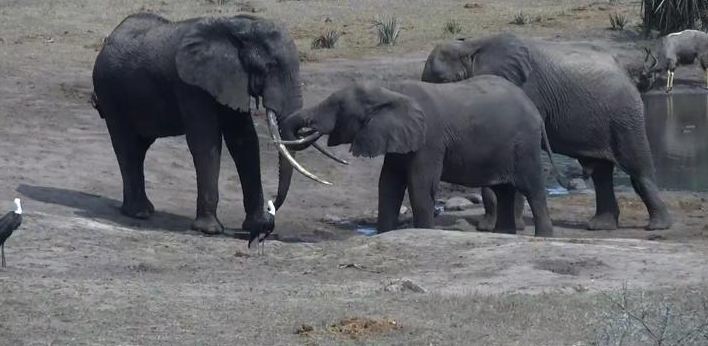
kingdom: Animalia
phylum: Chordata
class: Mammalia
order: Proboscidea
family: Elephantidae
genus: Loxodonta
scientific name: Loxodonta africana
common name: African elephant
